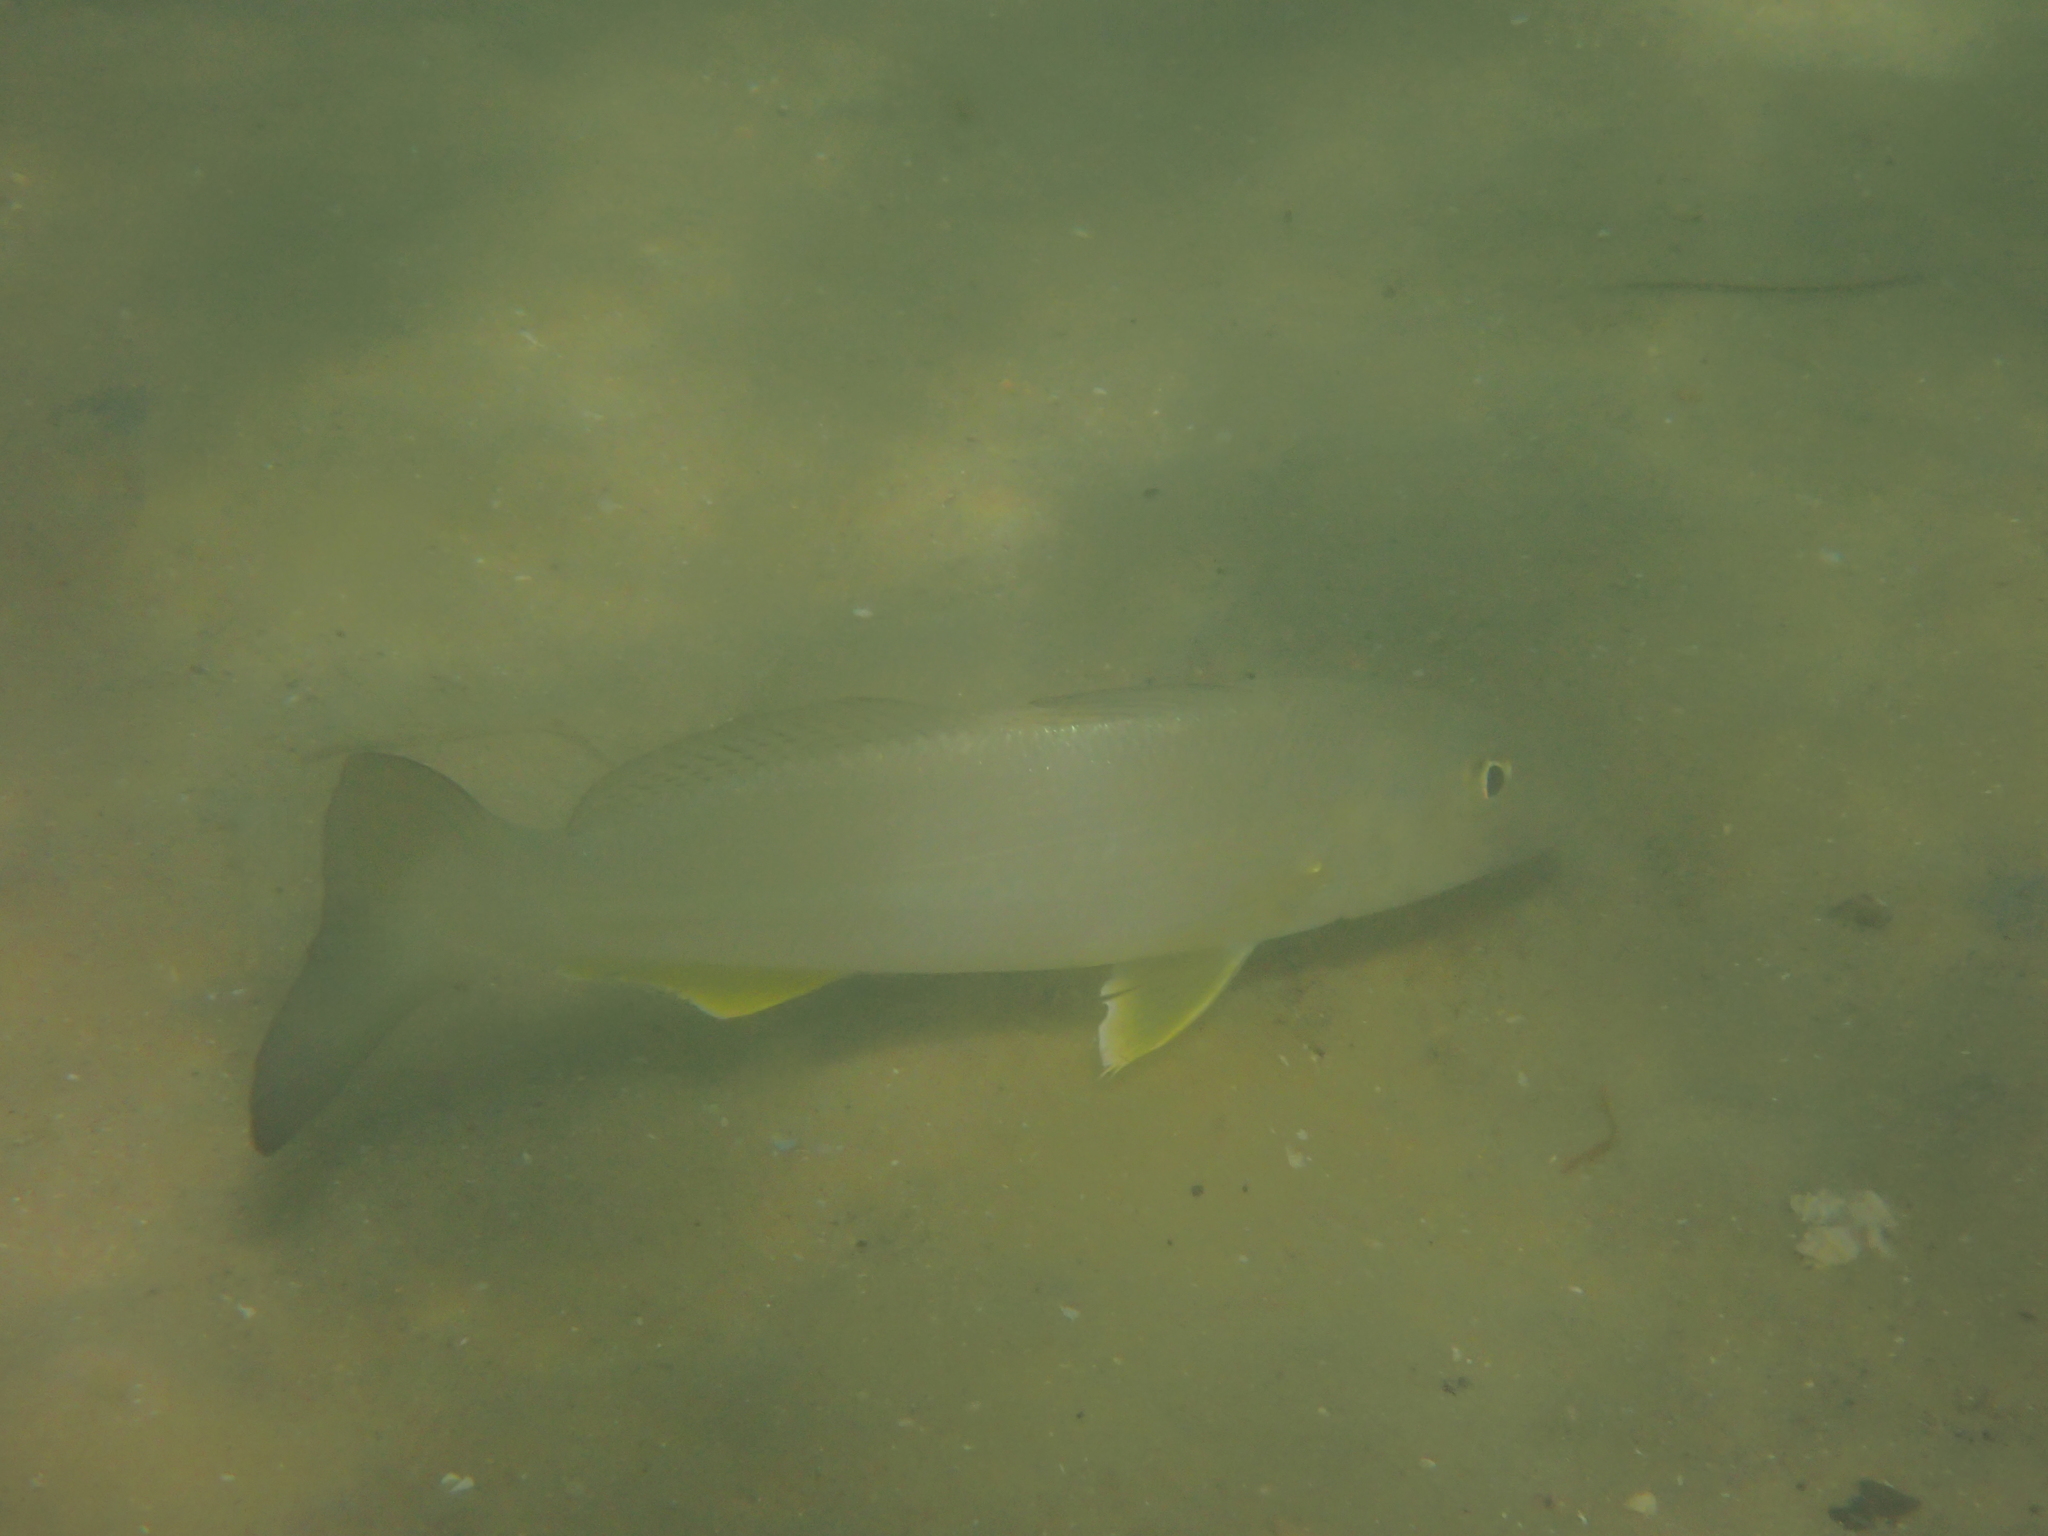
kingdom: Animalia
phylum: Chordata
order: Perciformes
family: Sillaginidae
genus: Sillago
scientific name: Sillago ciliata
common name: Sand sillago
